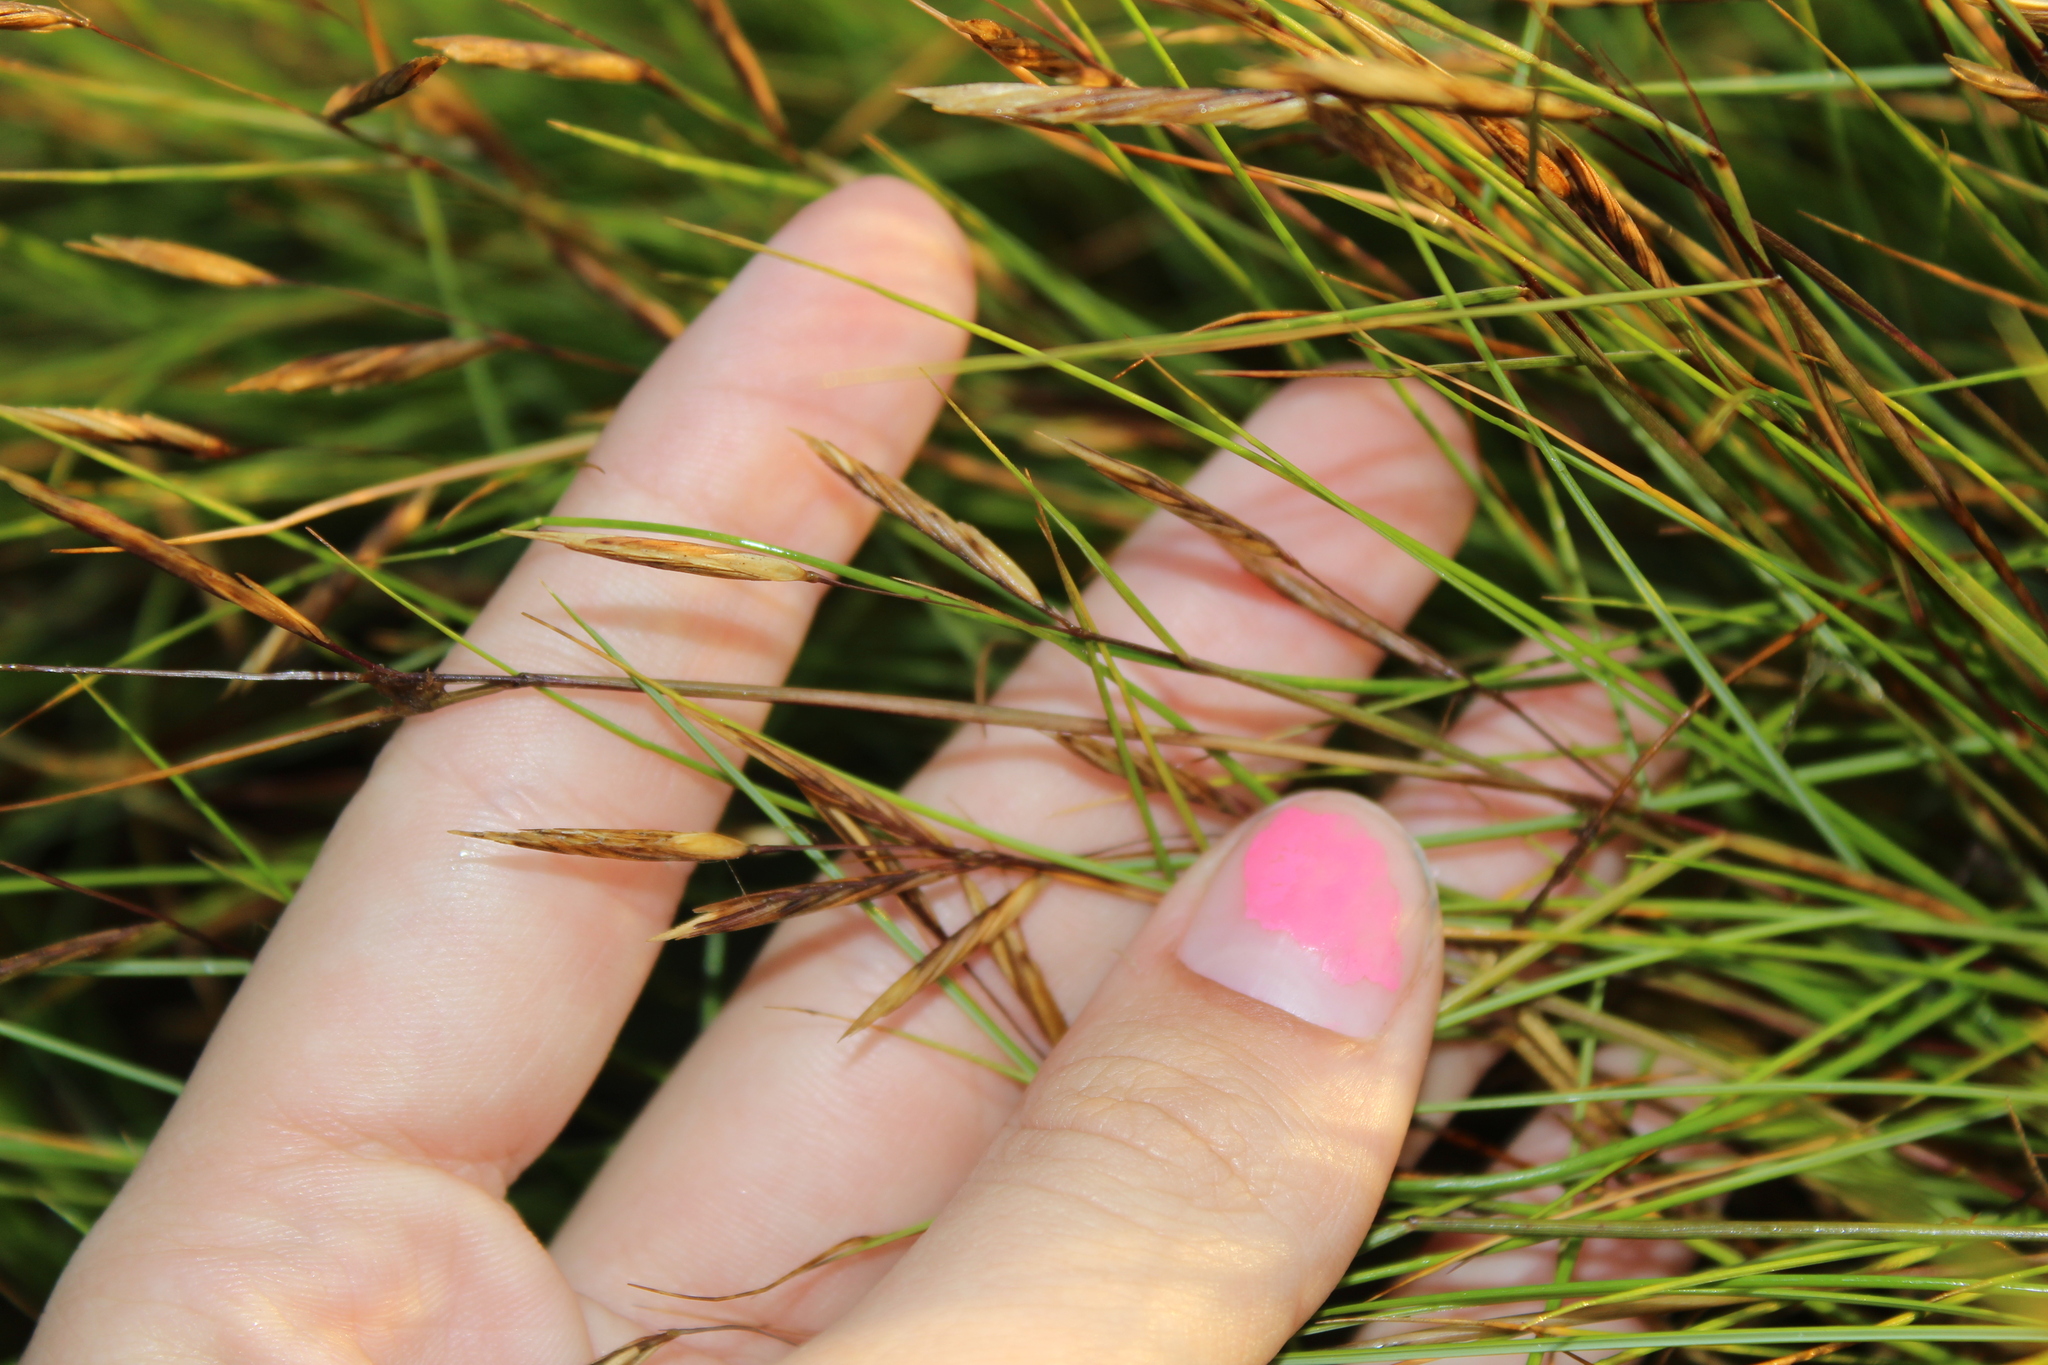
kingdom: Plantae
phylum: Tracheophyta
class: Liliopsida
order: Poales
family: Poaceae
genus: Sporobolus
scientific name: Sporobolus pumilus
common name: Highwater grass
